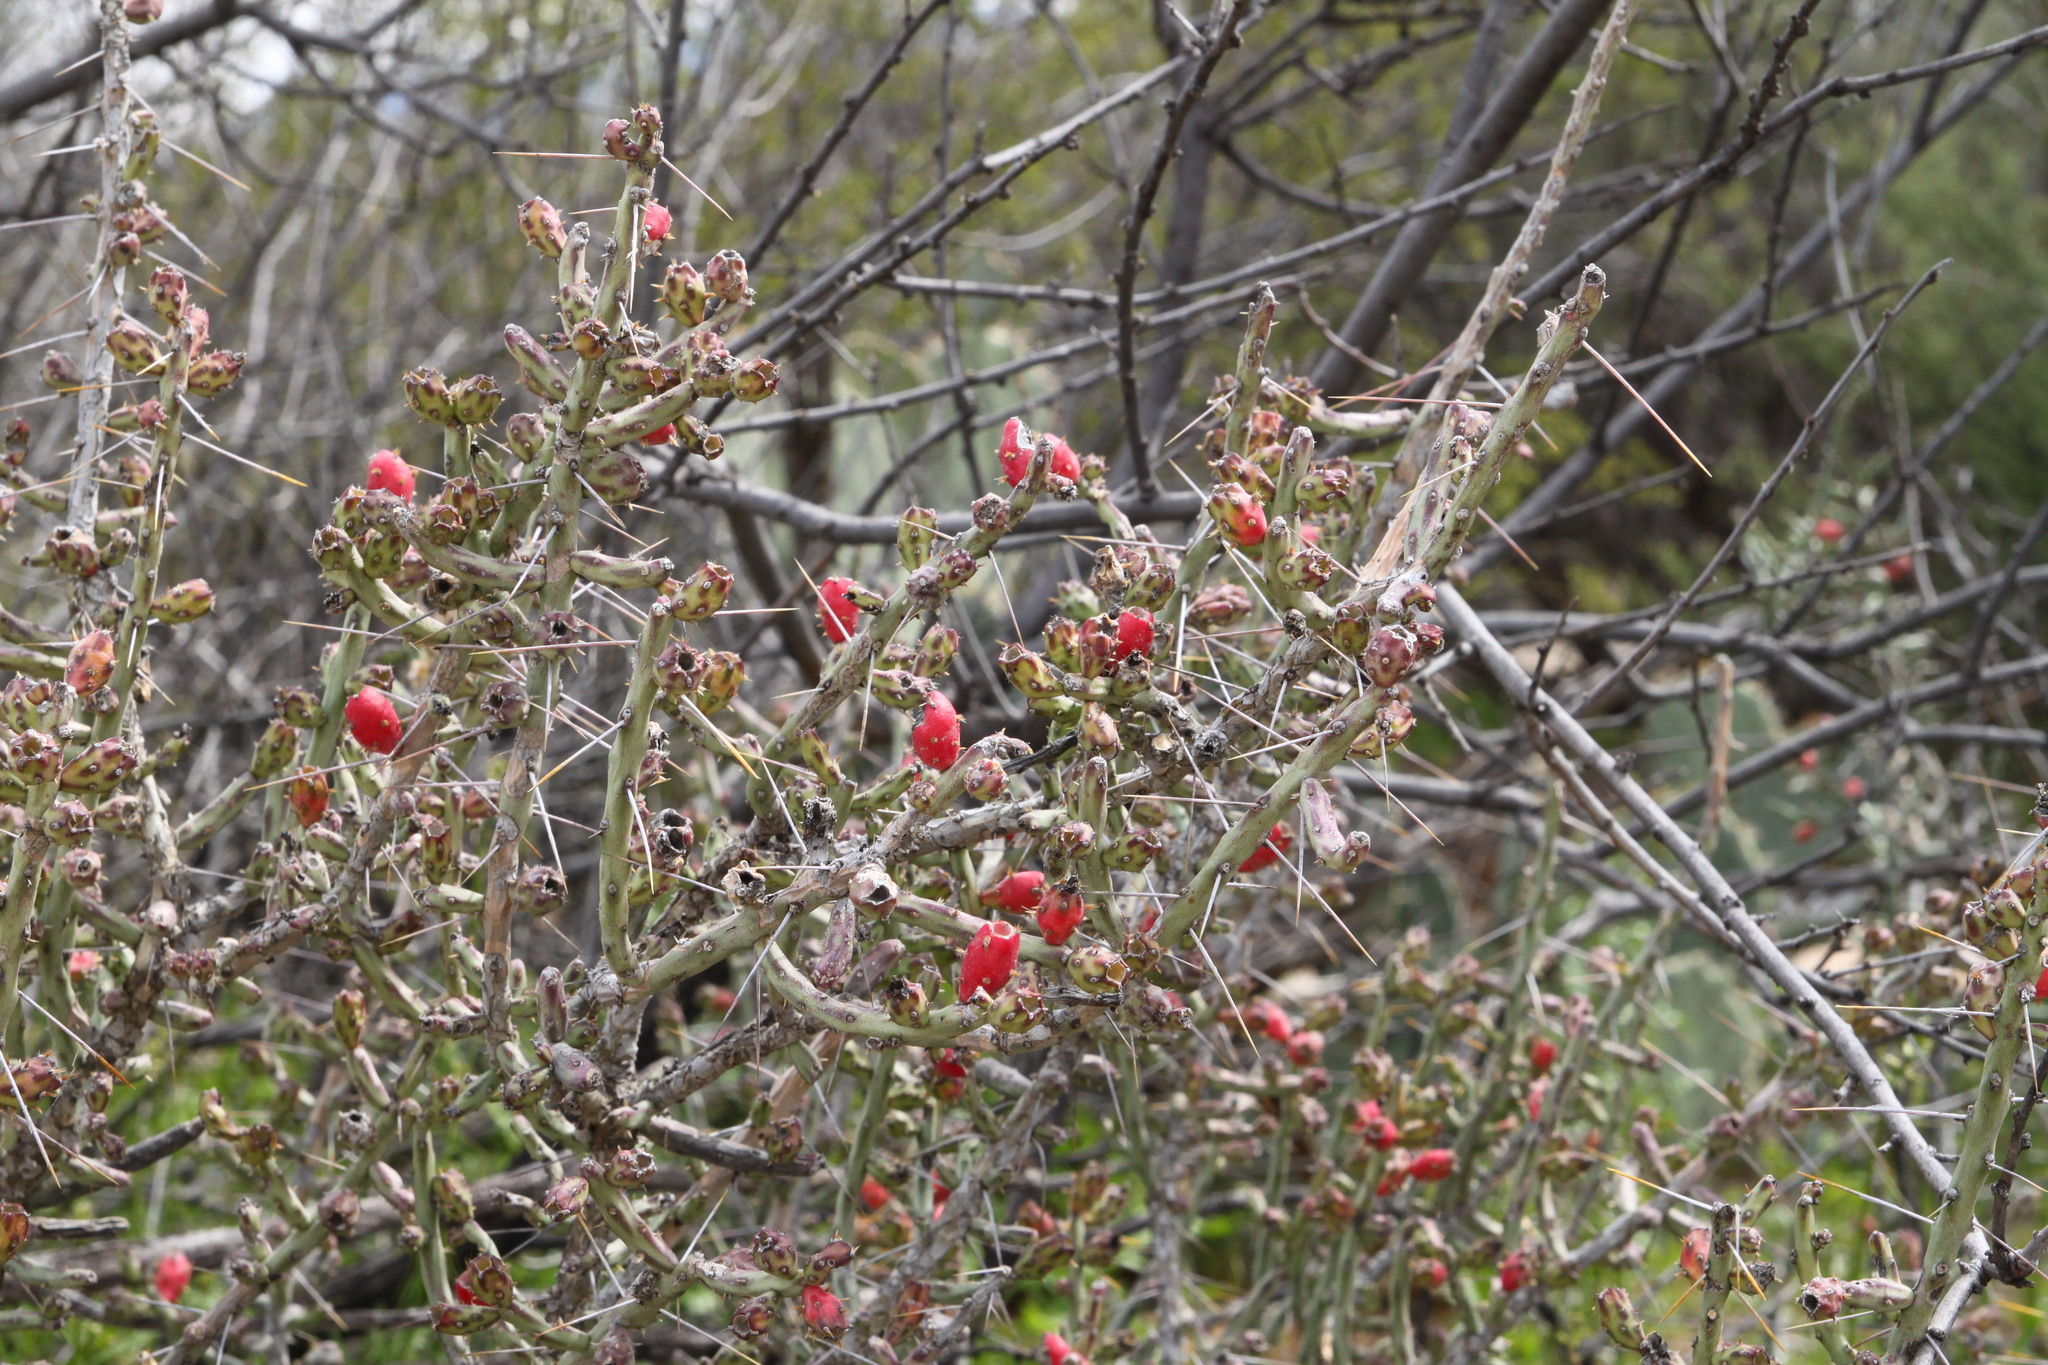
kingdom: Plantae
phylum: Tracheophyta
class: Magnoliopsida
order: Caryophyllales
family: Cactaceae
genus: Cylindropuntia
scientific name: Cylindropuntia leptocaulis
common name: Christmas cactus
